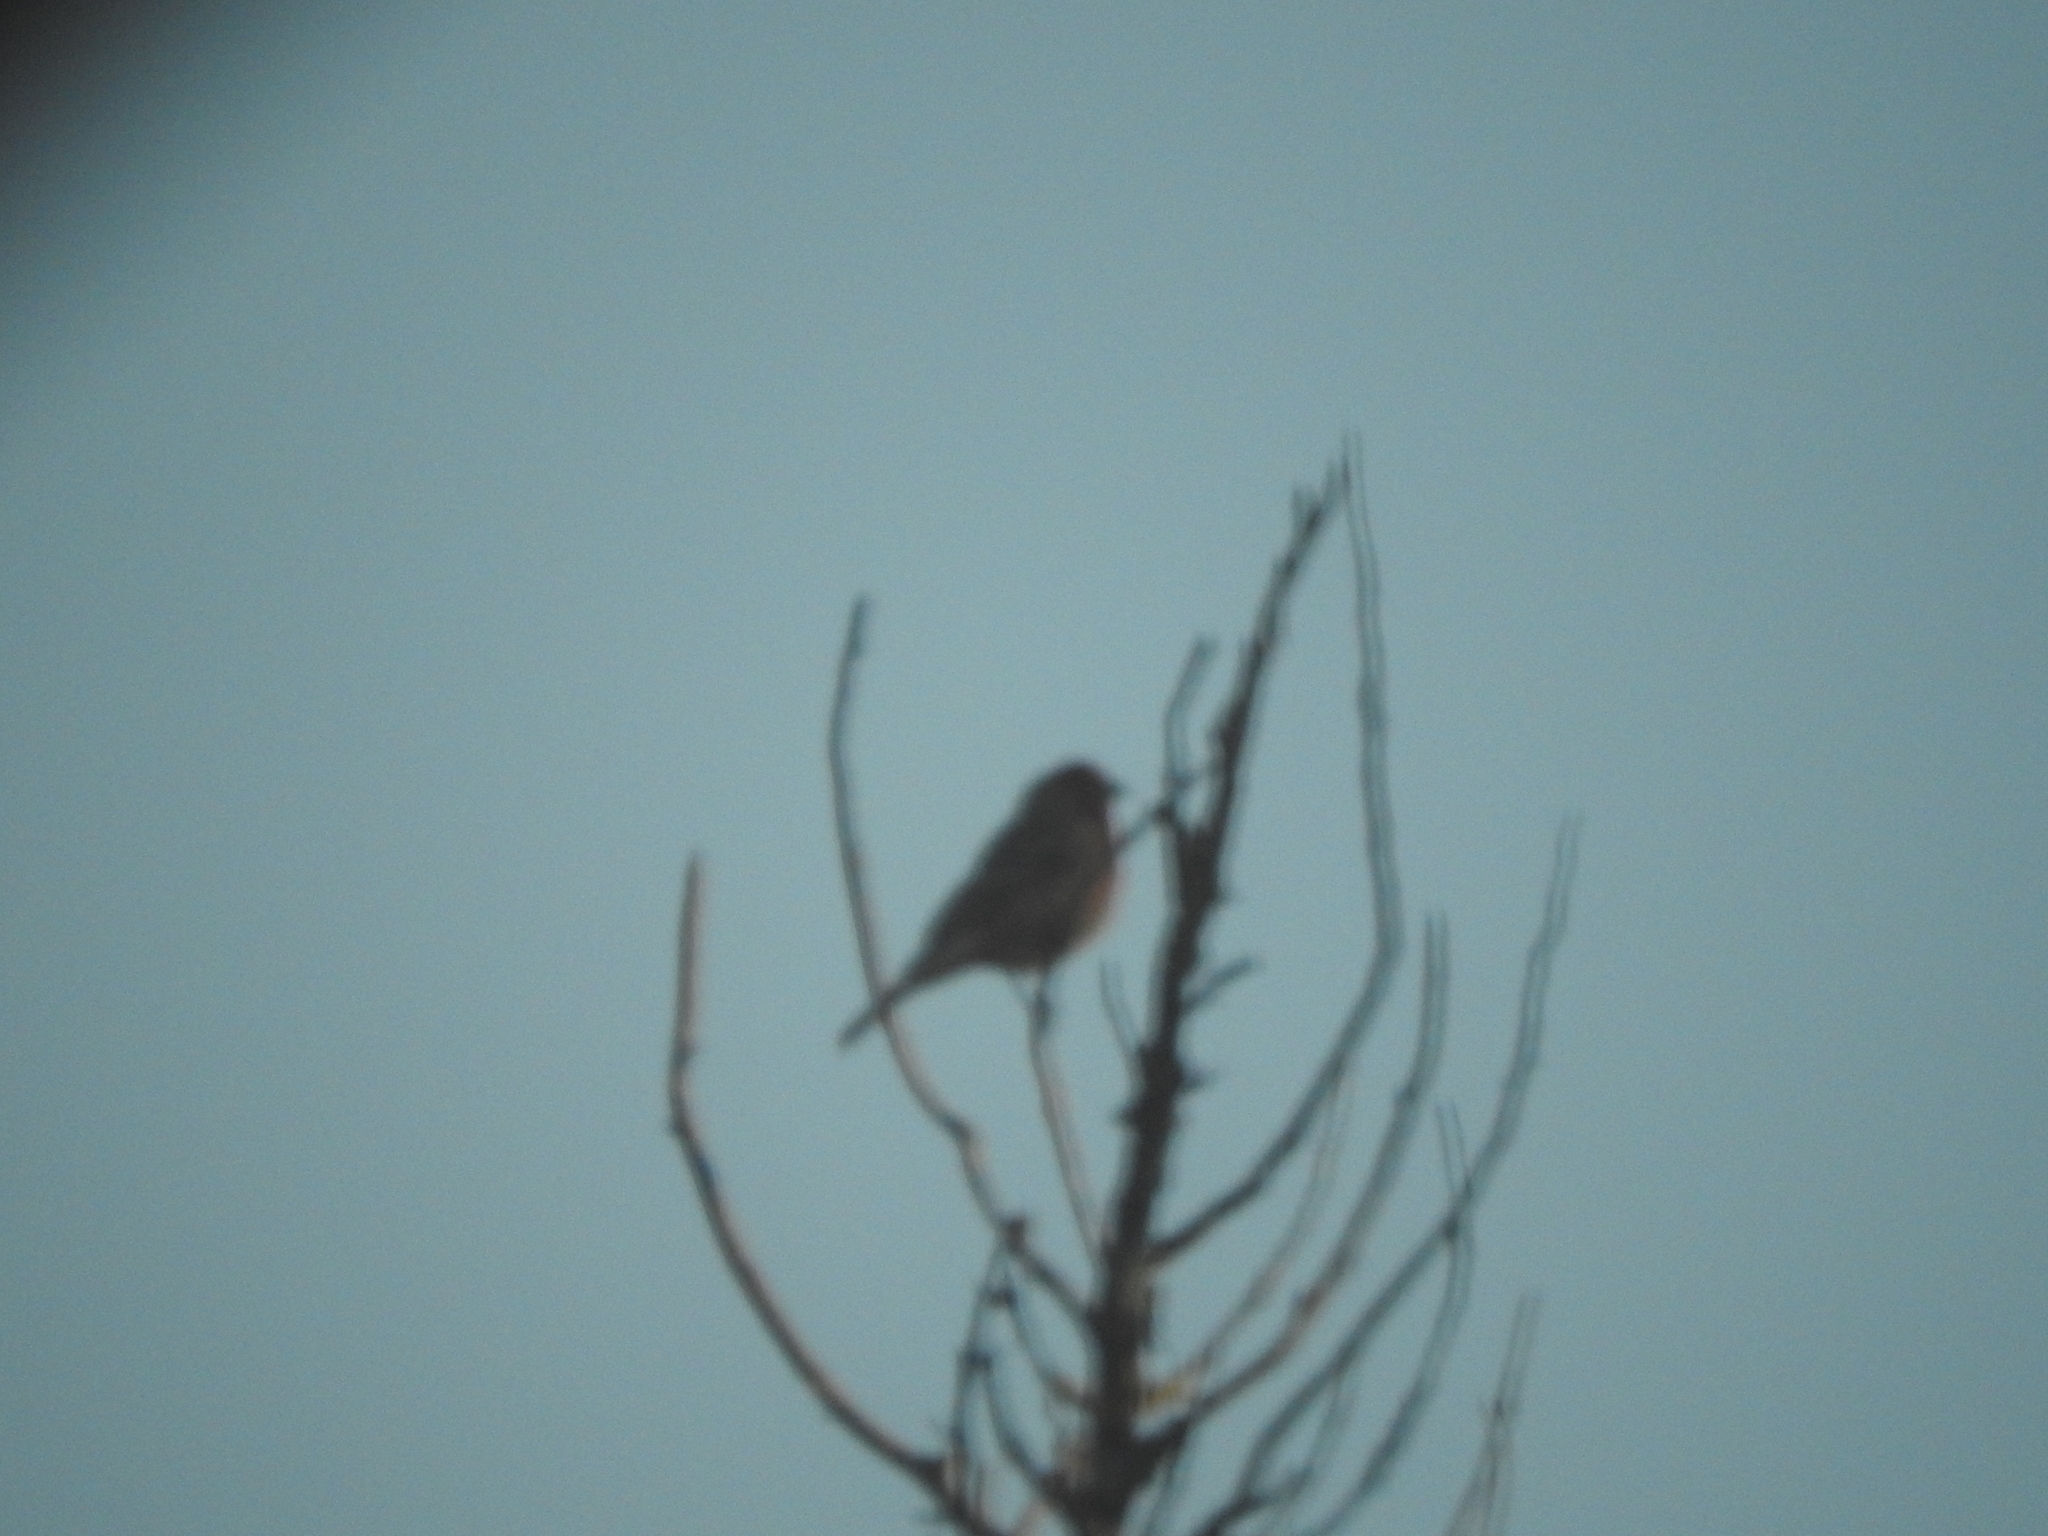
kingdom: Animalia
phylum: Chordata
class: Aves
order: Passeriformes
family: Fringillidae
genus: Haemorhous
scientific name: Haemorhous mexicanus
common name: House finch
